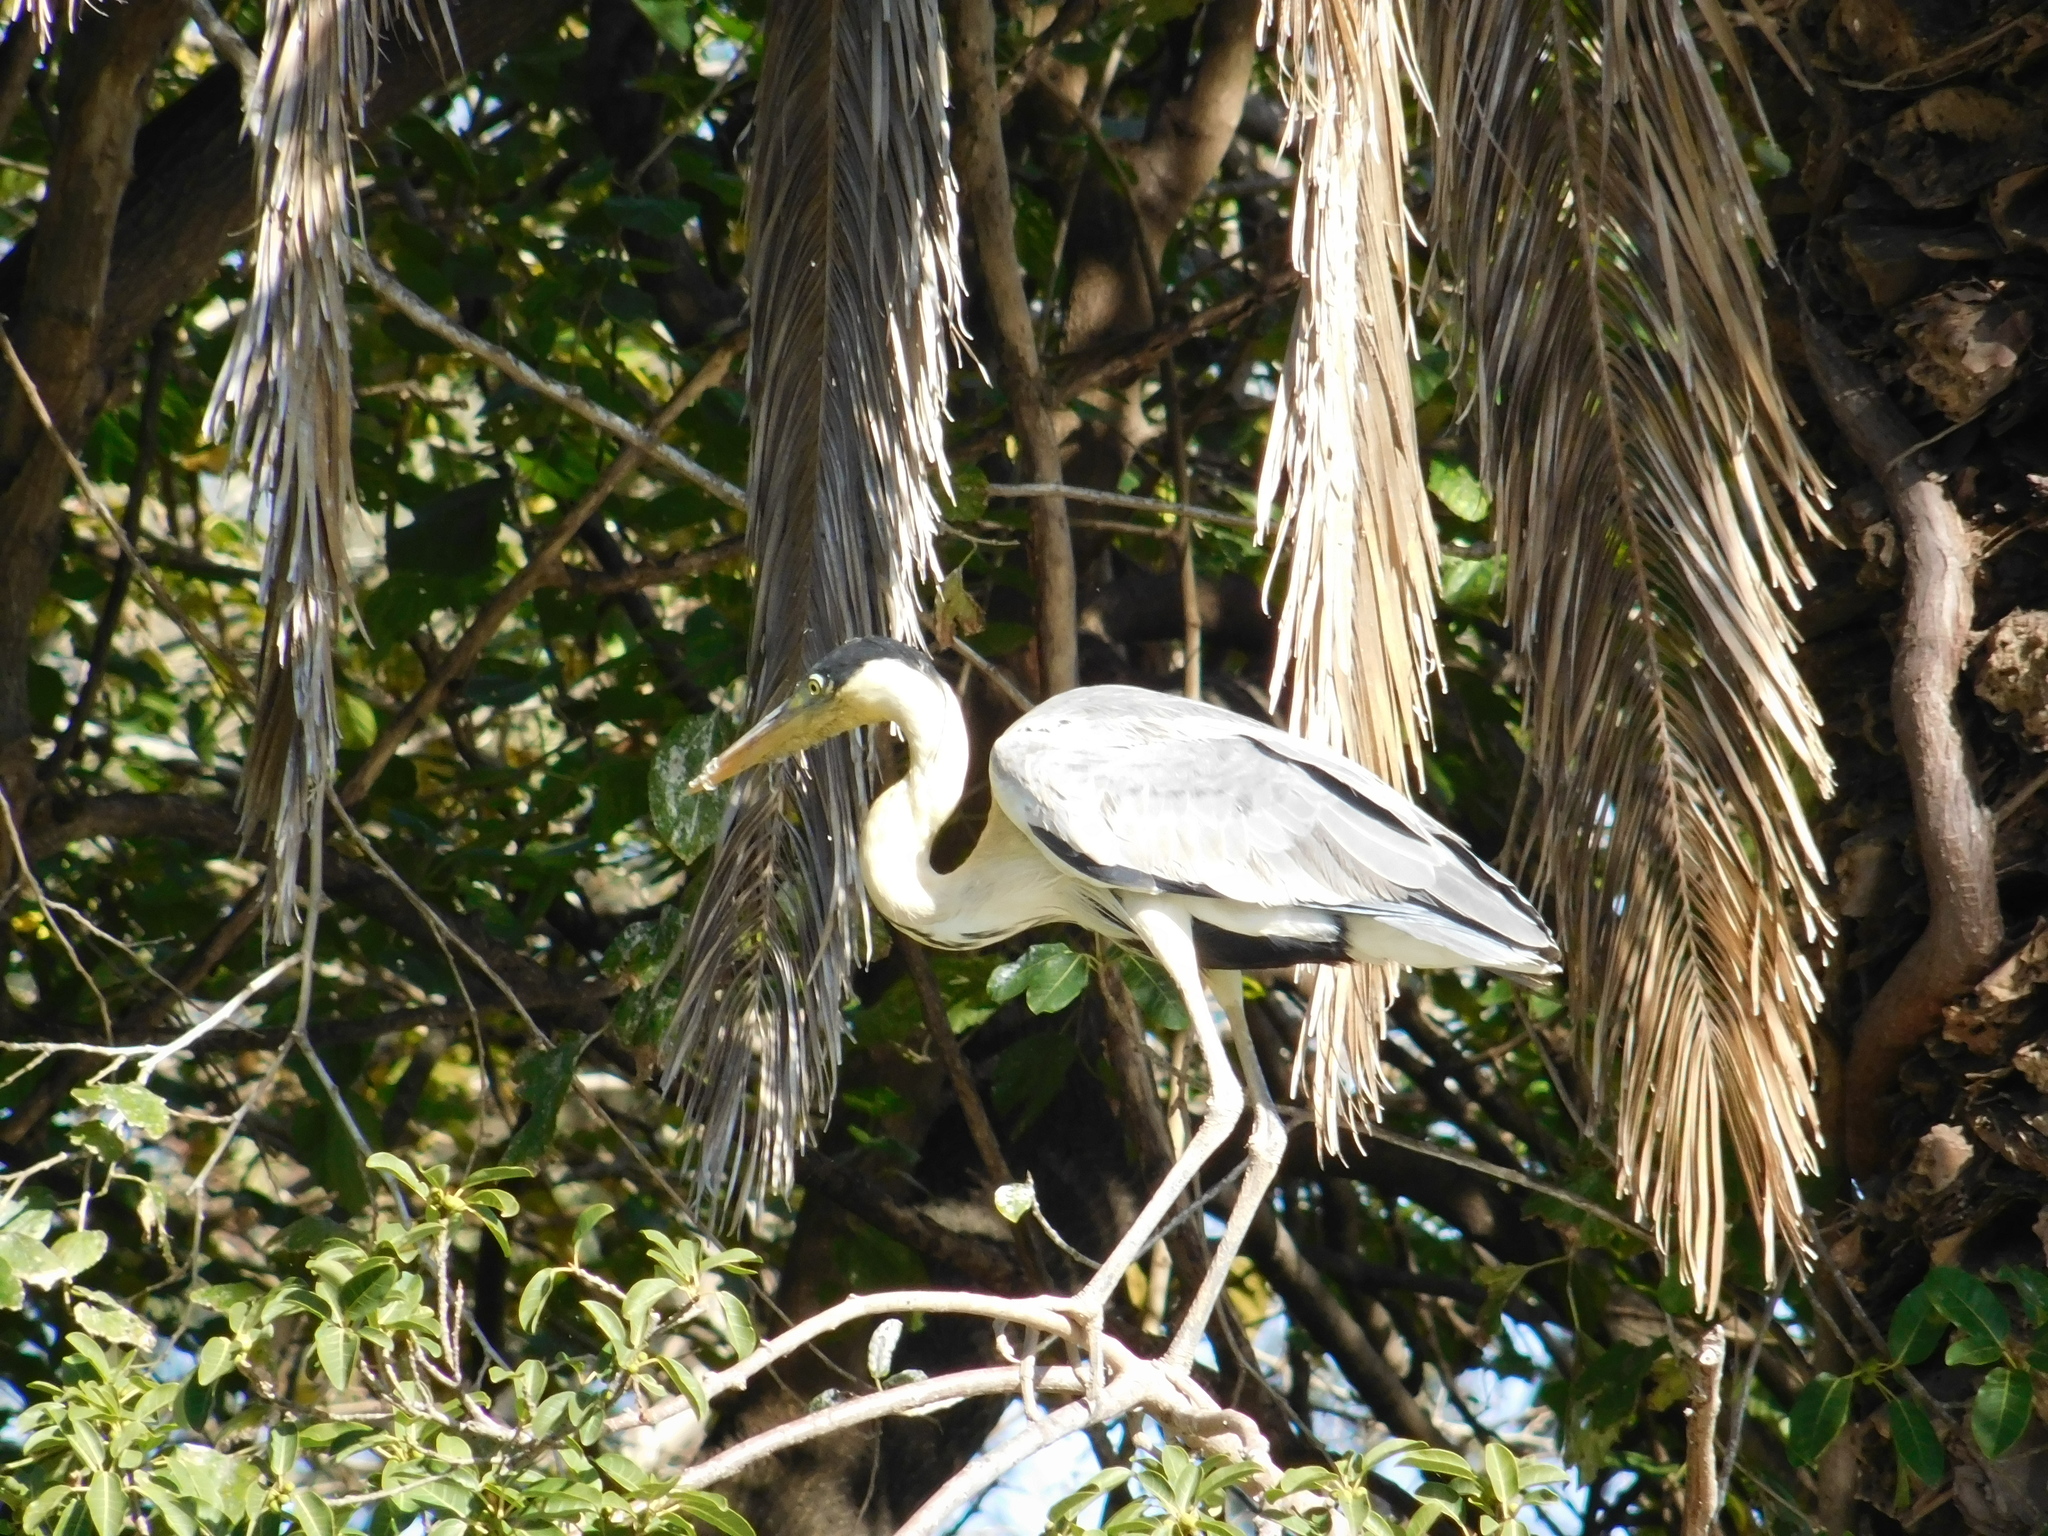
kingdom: Animalia
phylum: Chordata
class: Aves
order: Pelecaniformes
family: Ardeidae
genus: Ardea
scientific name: Ardea cocoi
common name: Cocoi heron
